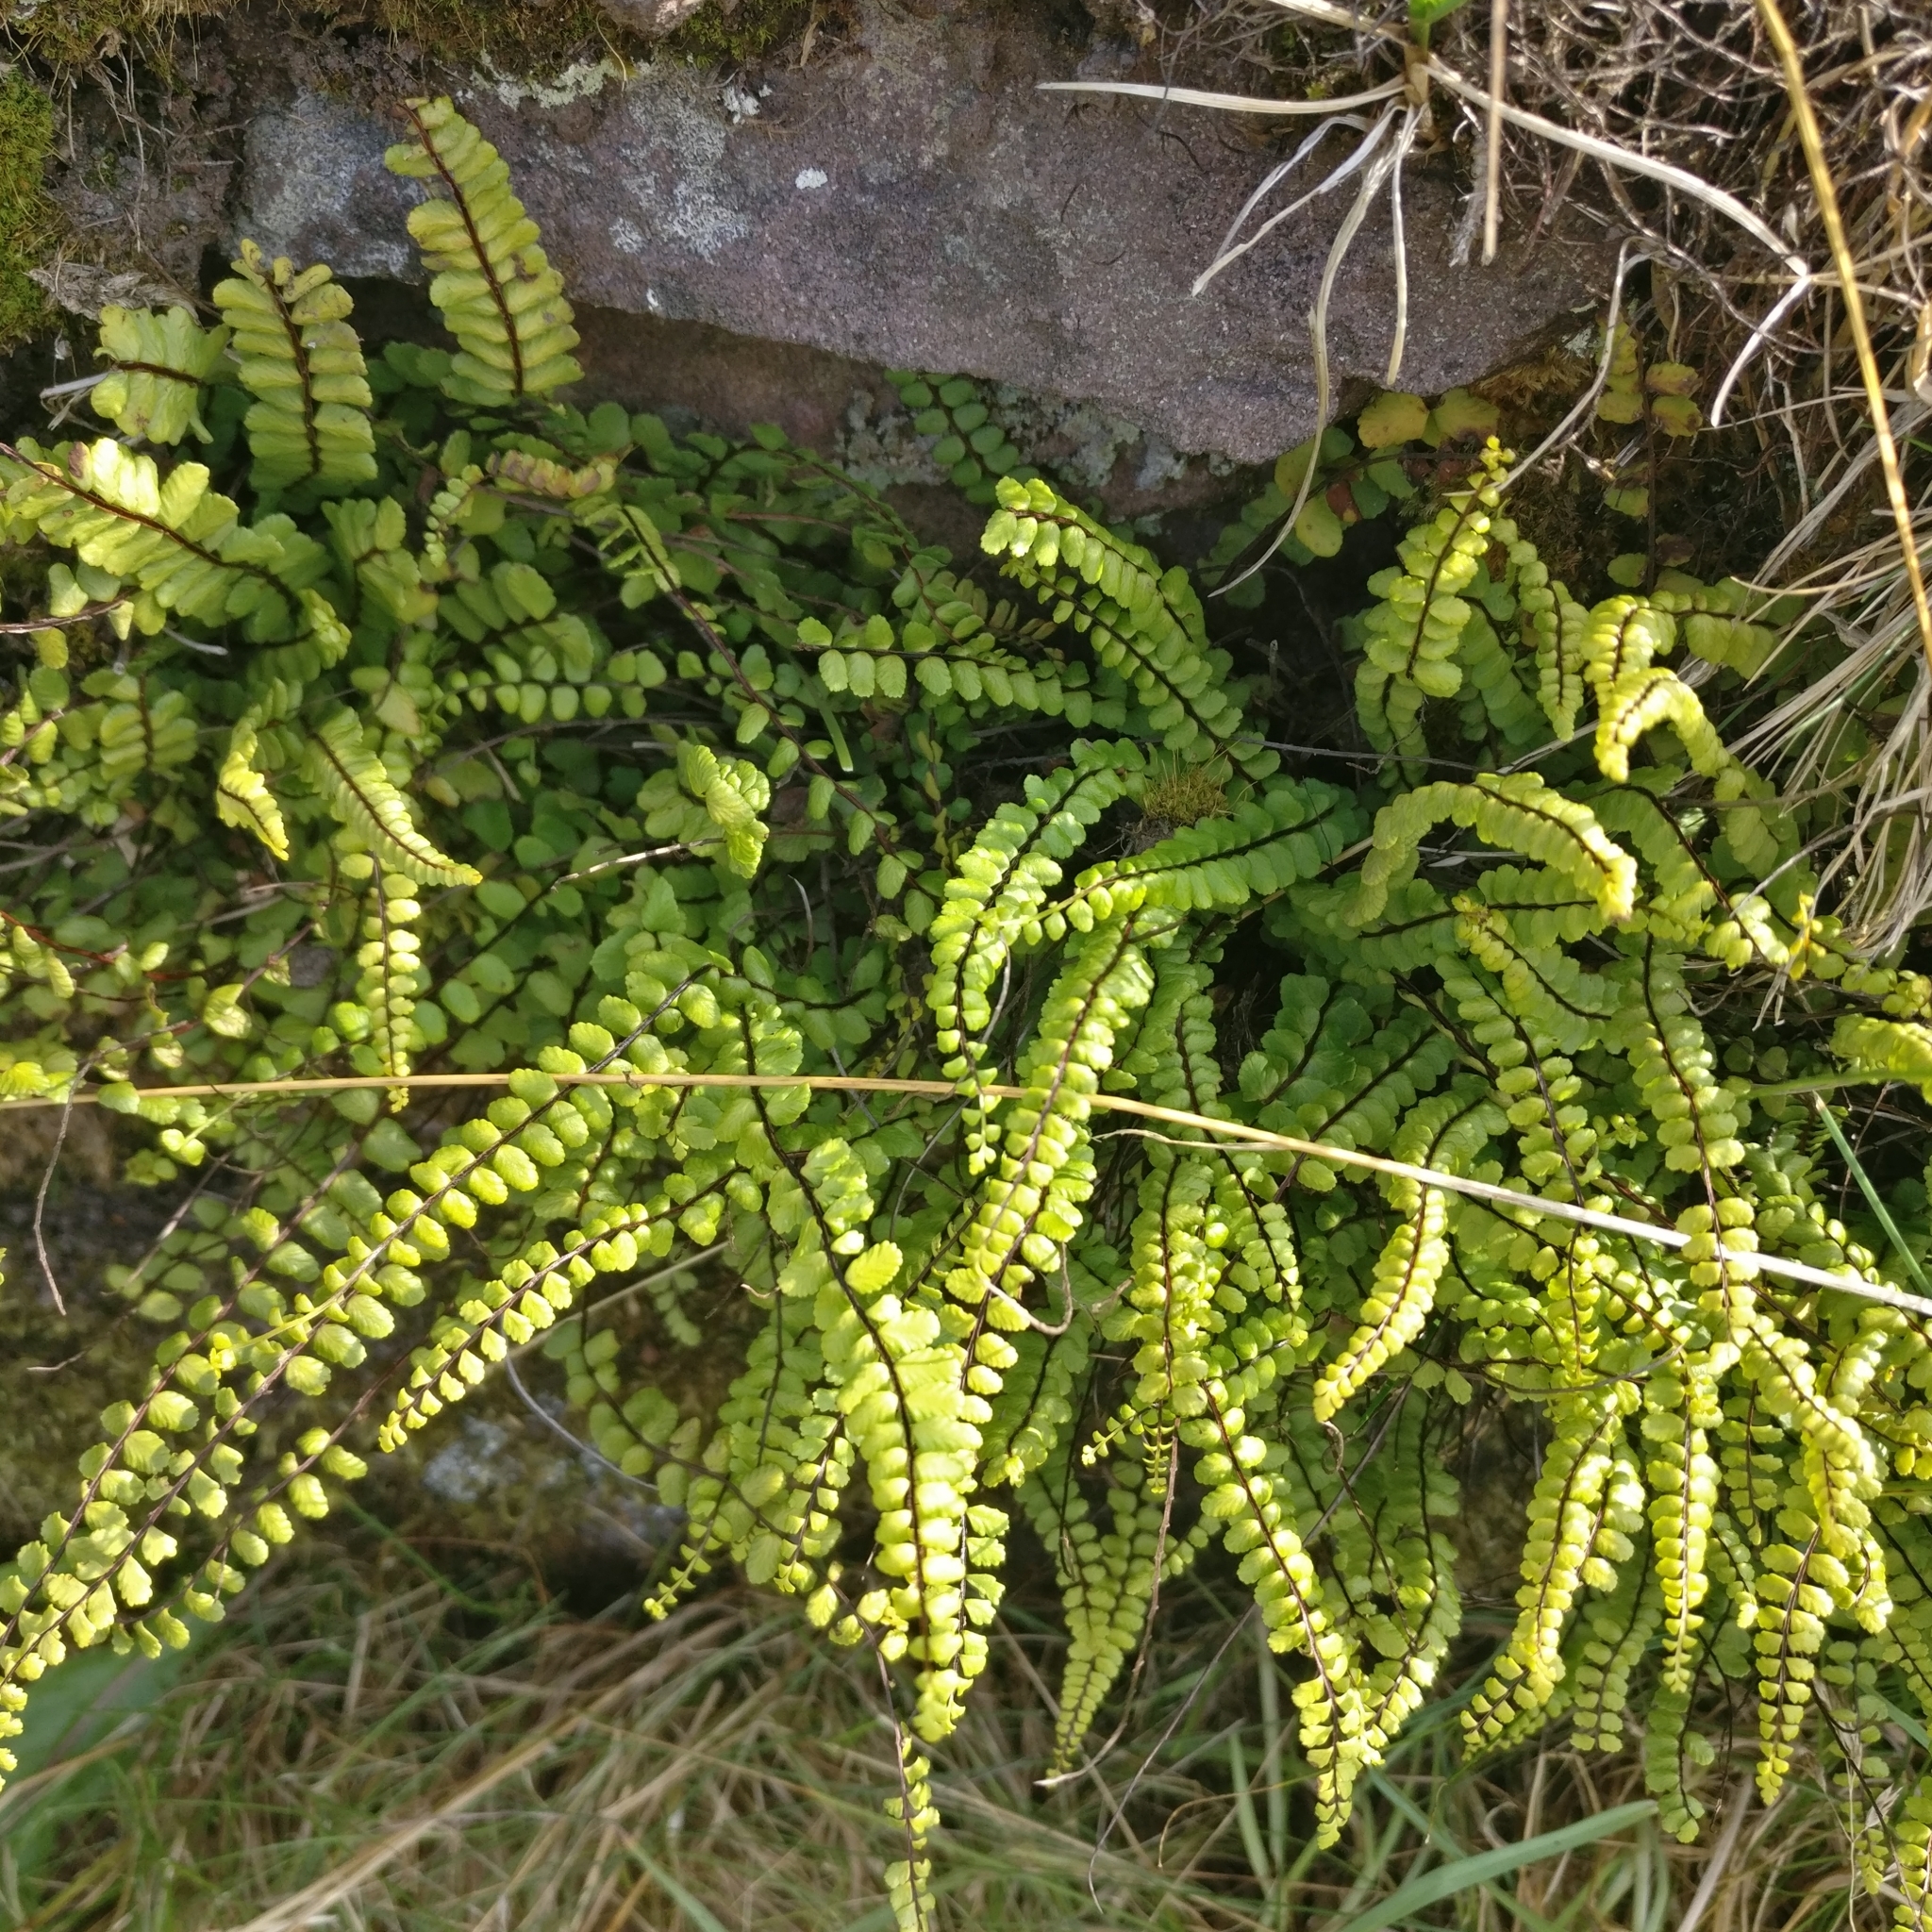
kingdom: Plantae
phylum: Tracheophyta
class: Polypodiopsida
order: Polypodiales
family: Aspleniaceae
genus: Asplenium
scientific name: Asplenium trichomanes
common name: Maidenhair spleenwort
